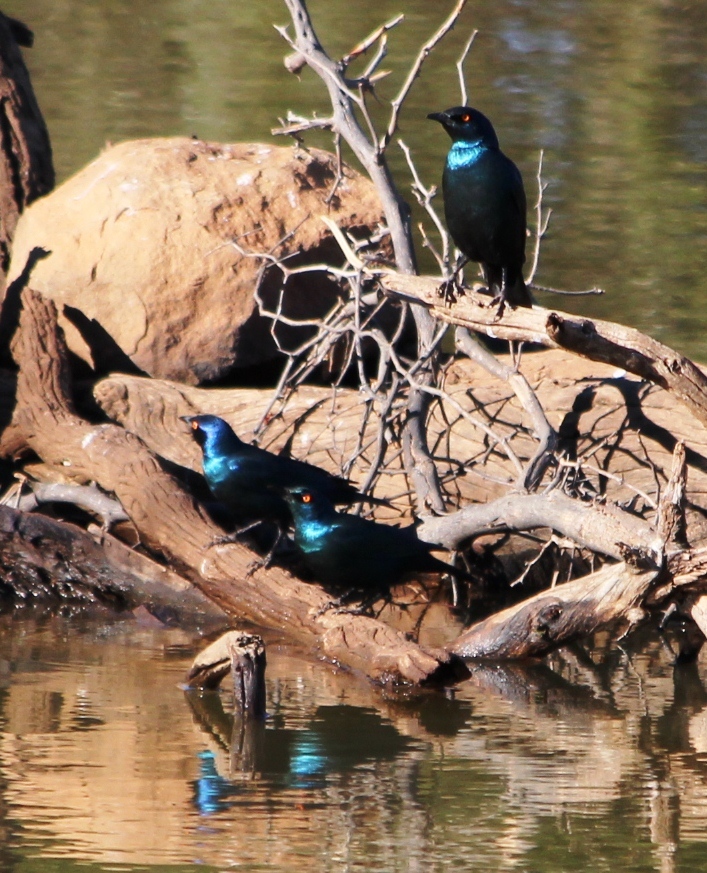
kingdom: Animalia
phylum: Chordata
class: Aves
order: Passeriformes
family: Sturnidae
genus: Lamprotornis
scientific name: Lamprotornis nitens
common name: Cape starling
